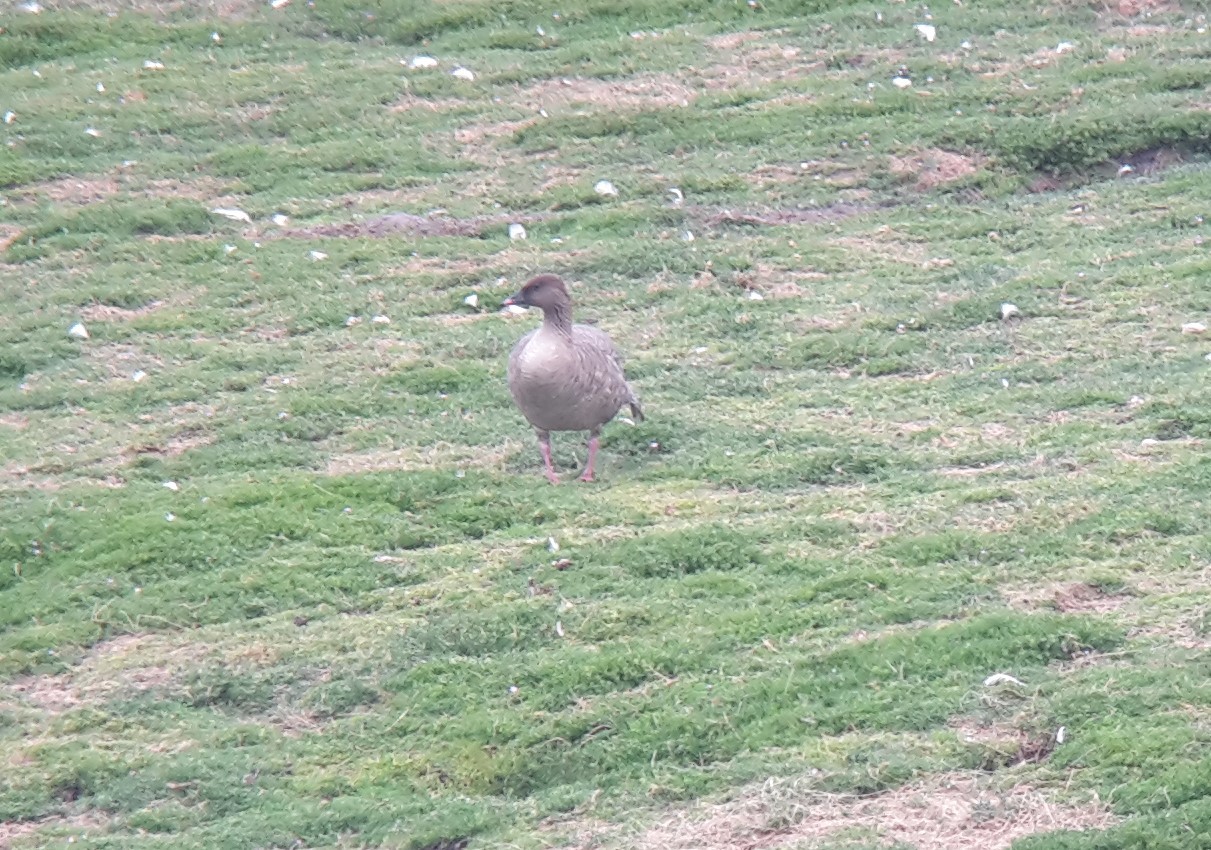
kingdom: Animalia
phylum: Chordata
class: Aves
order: Anseriformes
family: Anatidae
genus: Anser
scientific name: Anser brachyrhynchus
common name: Pink-footed goose
